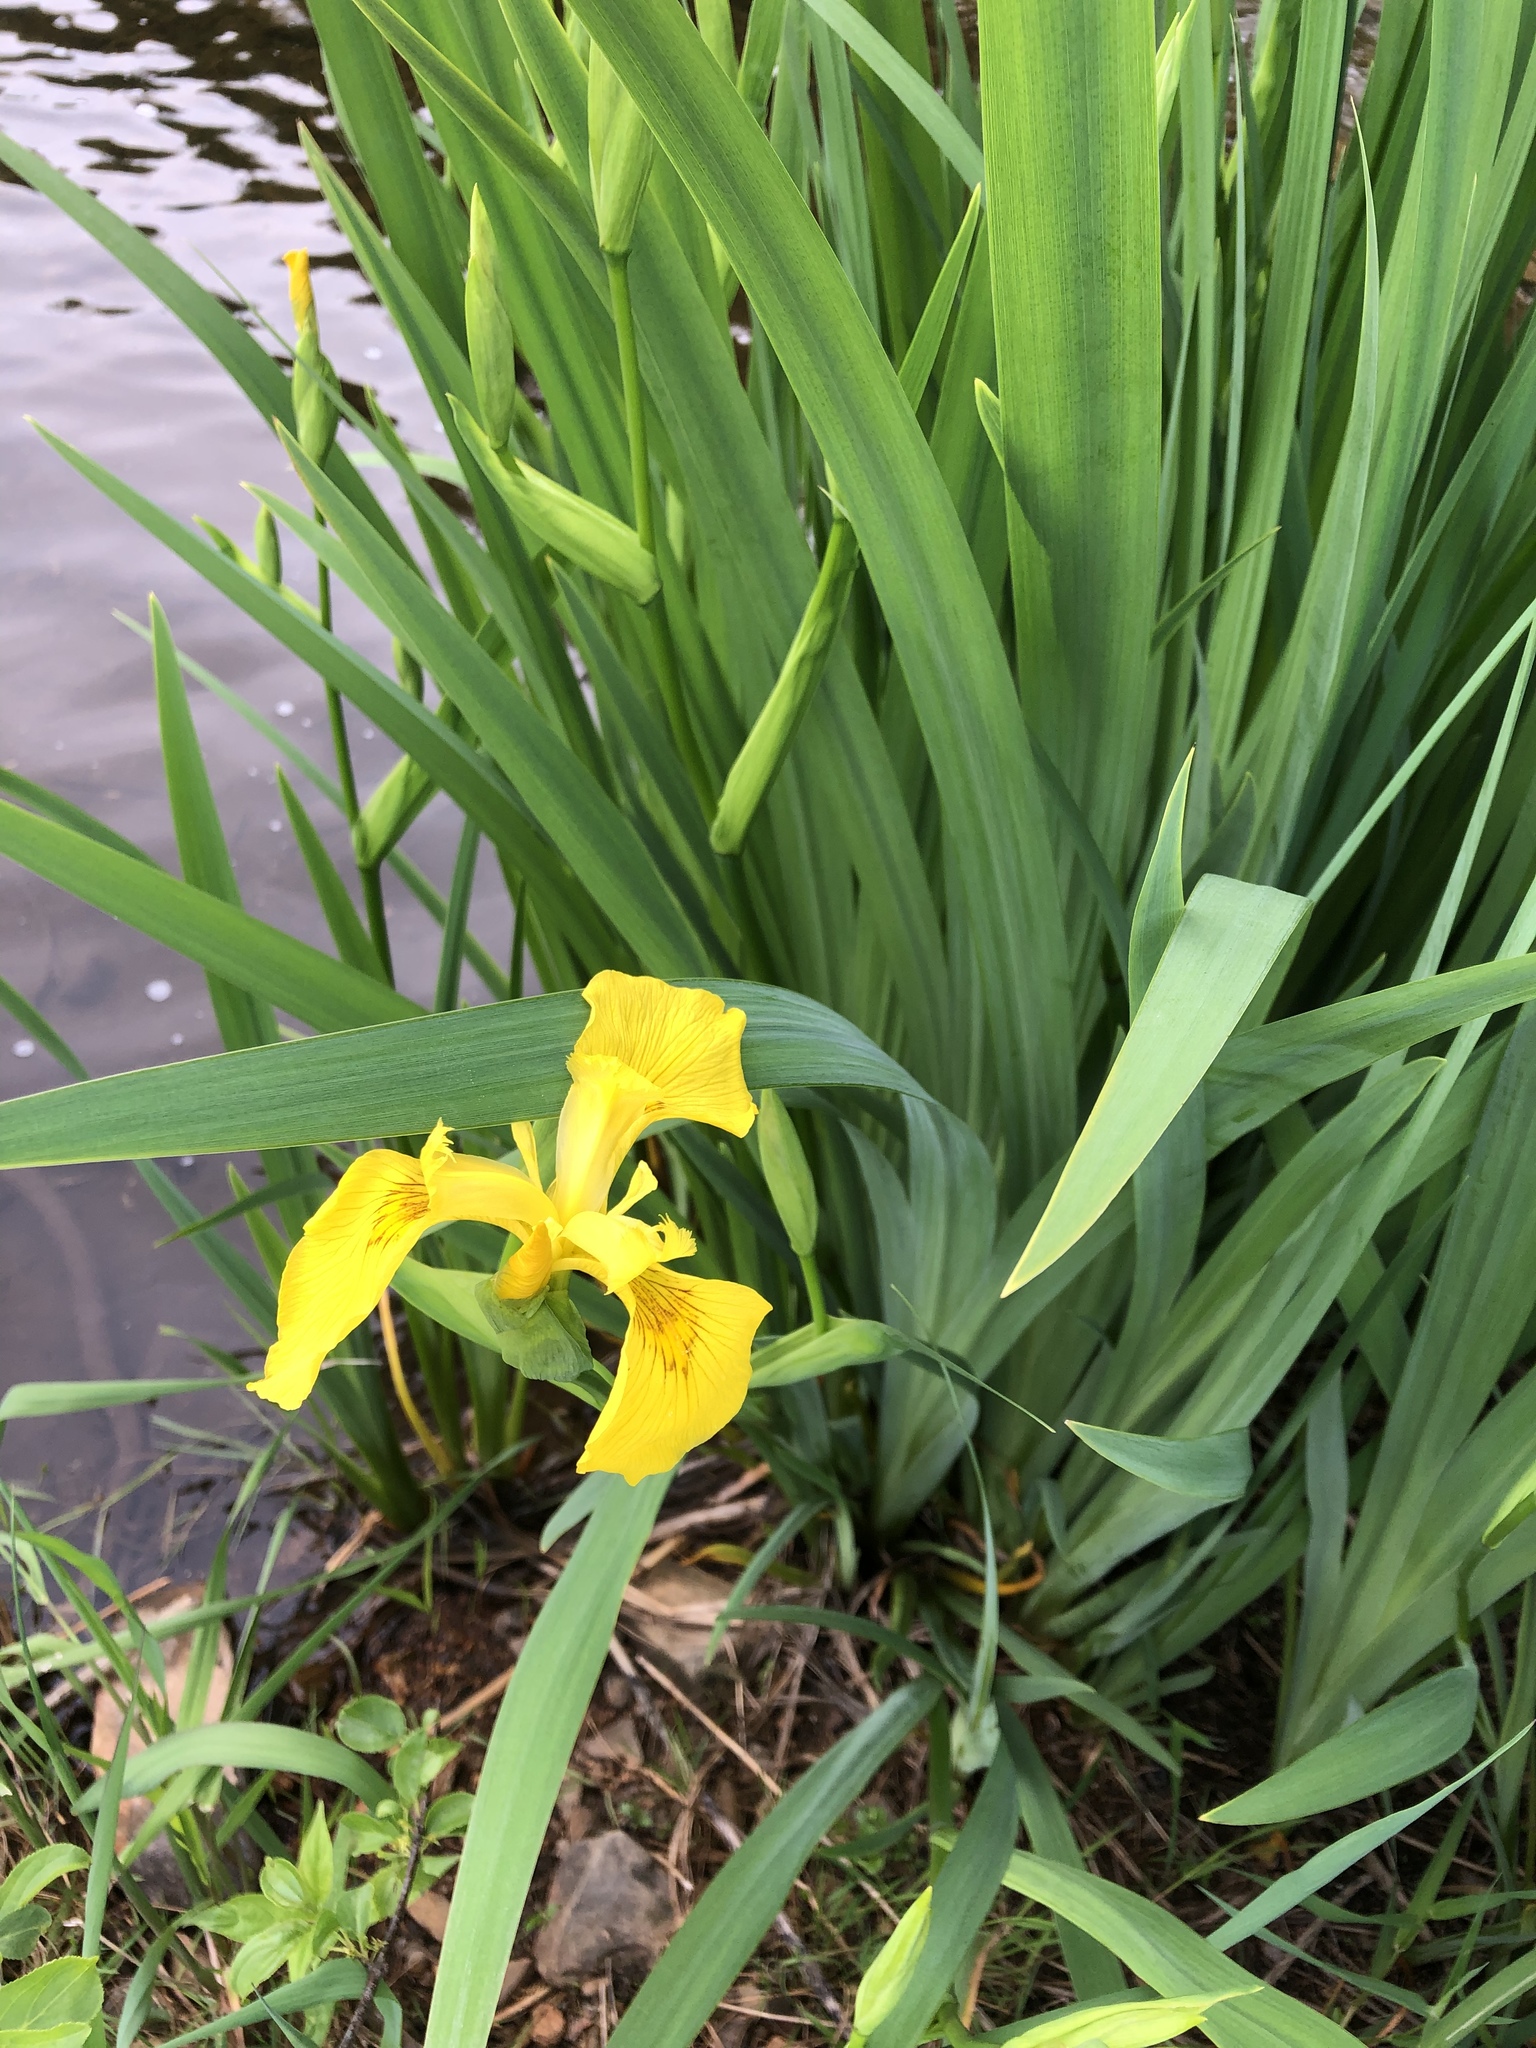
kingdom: Plantae
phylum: Tracheophyta
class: Liliopsida
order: Asparagales
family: Iridaceae
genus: Iris
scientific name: Iris pseudacorus
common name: Yellow flag
